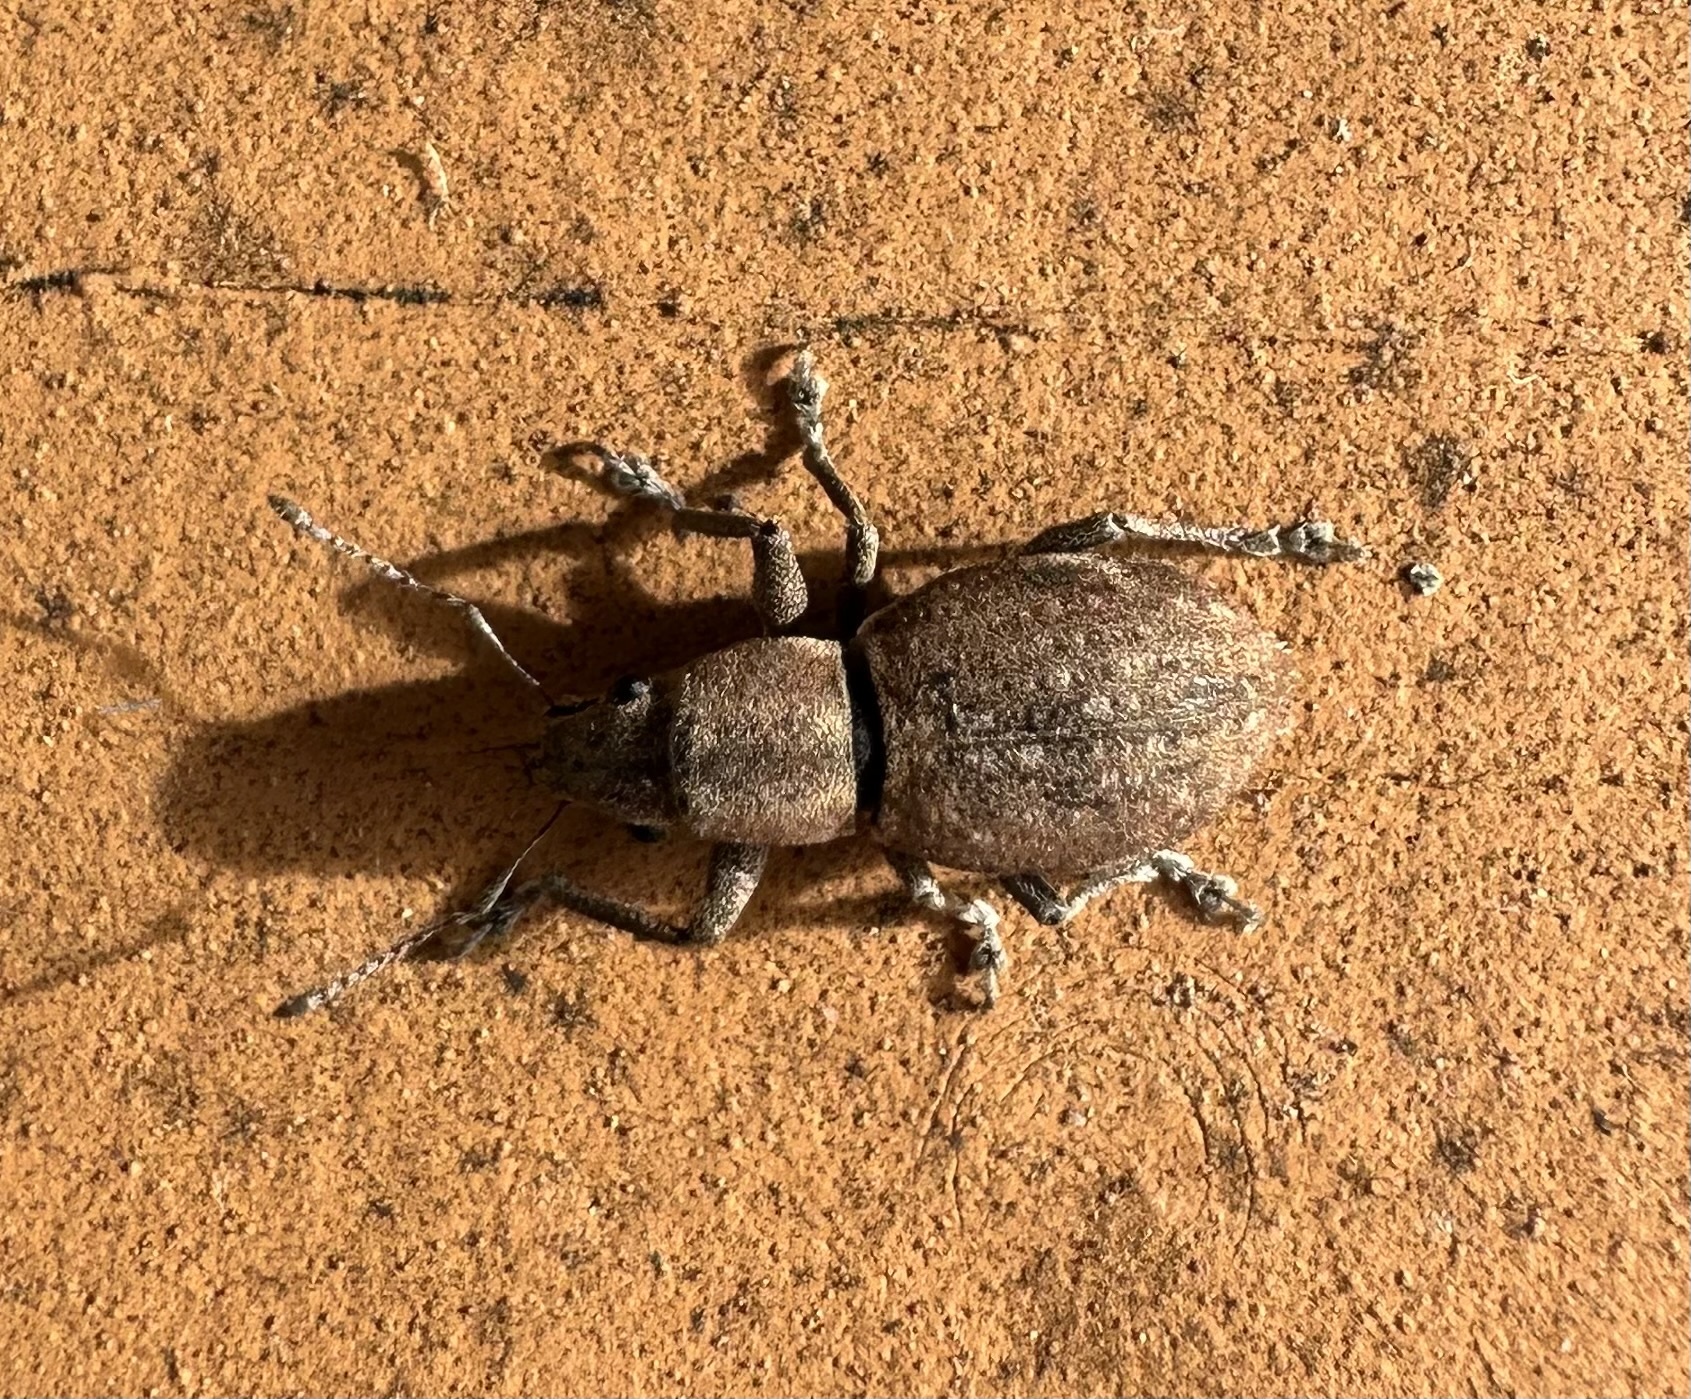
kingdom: Animalia
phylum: Arthropoda
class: Insecta
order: Coleoptera
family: Curculionidae
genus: Naupactus
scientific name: Naupactus cervinus
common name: Fuller rose beetle
